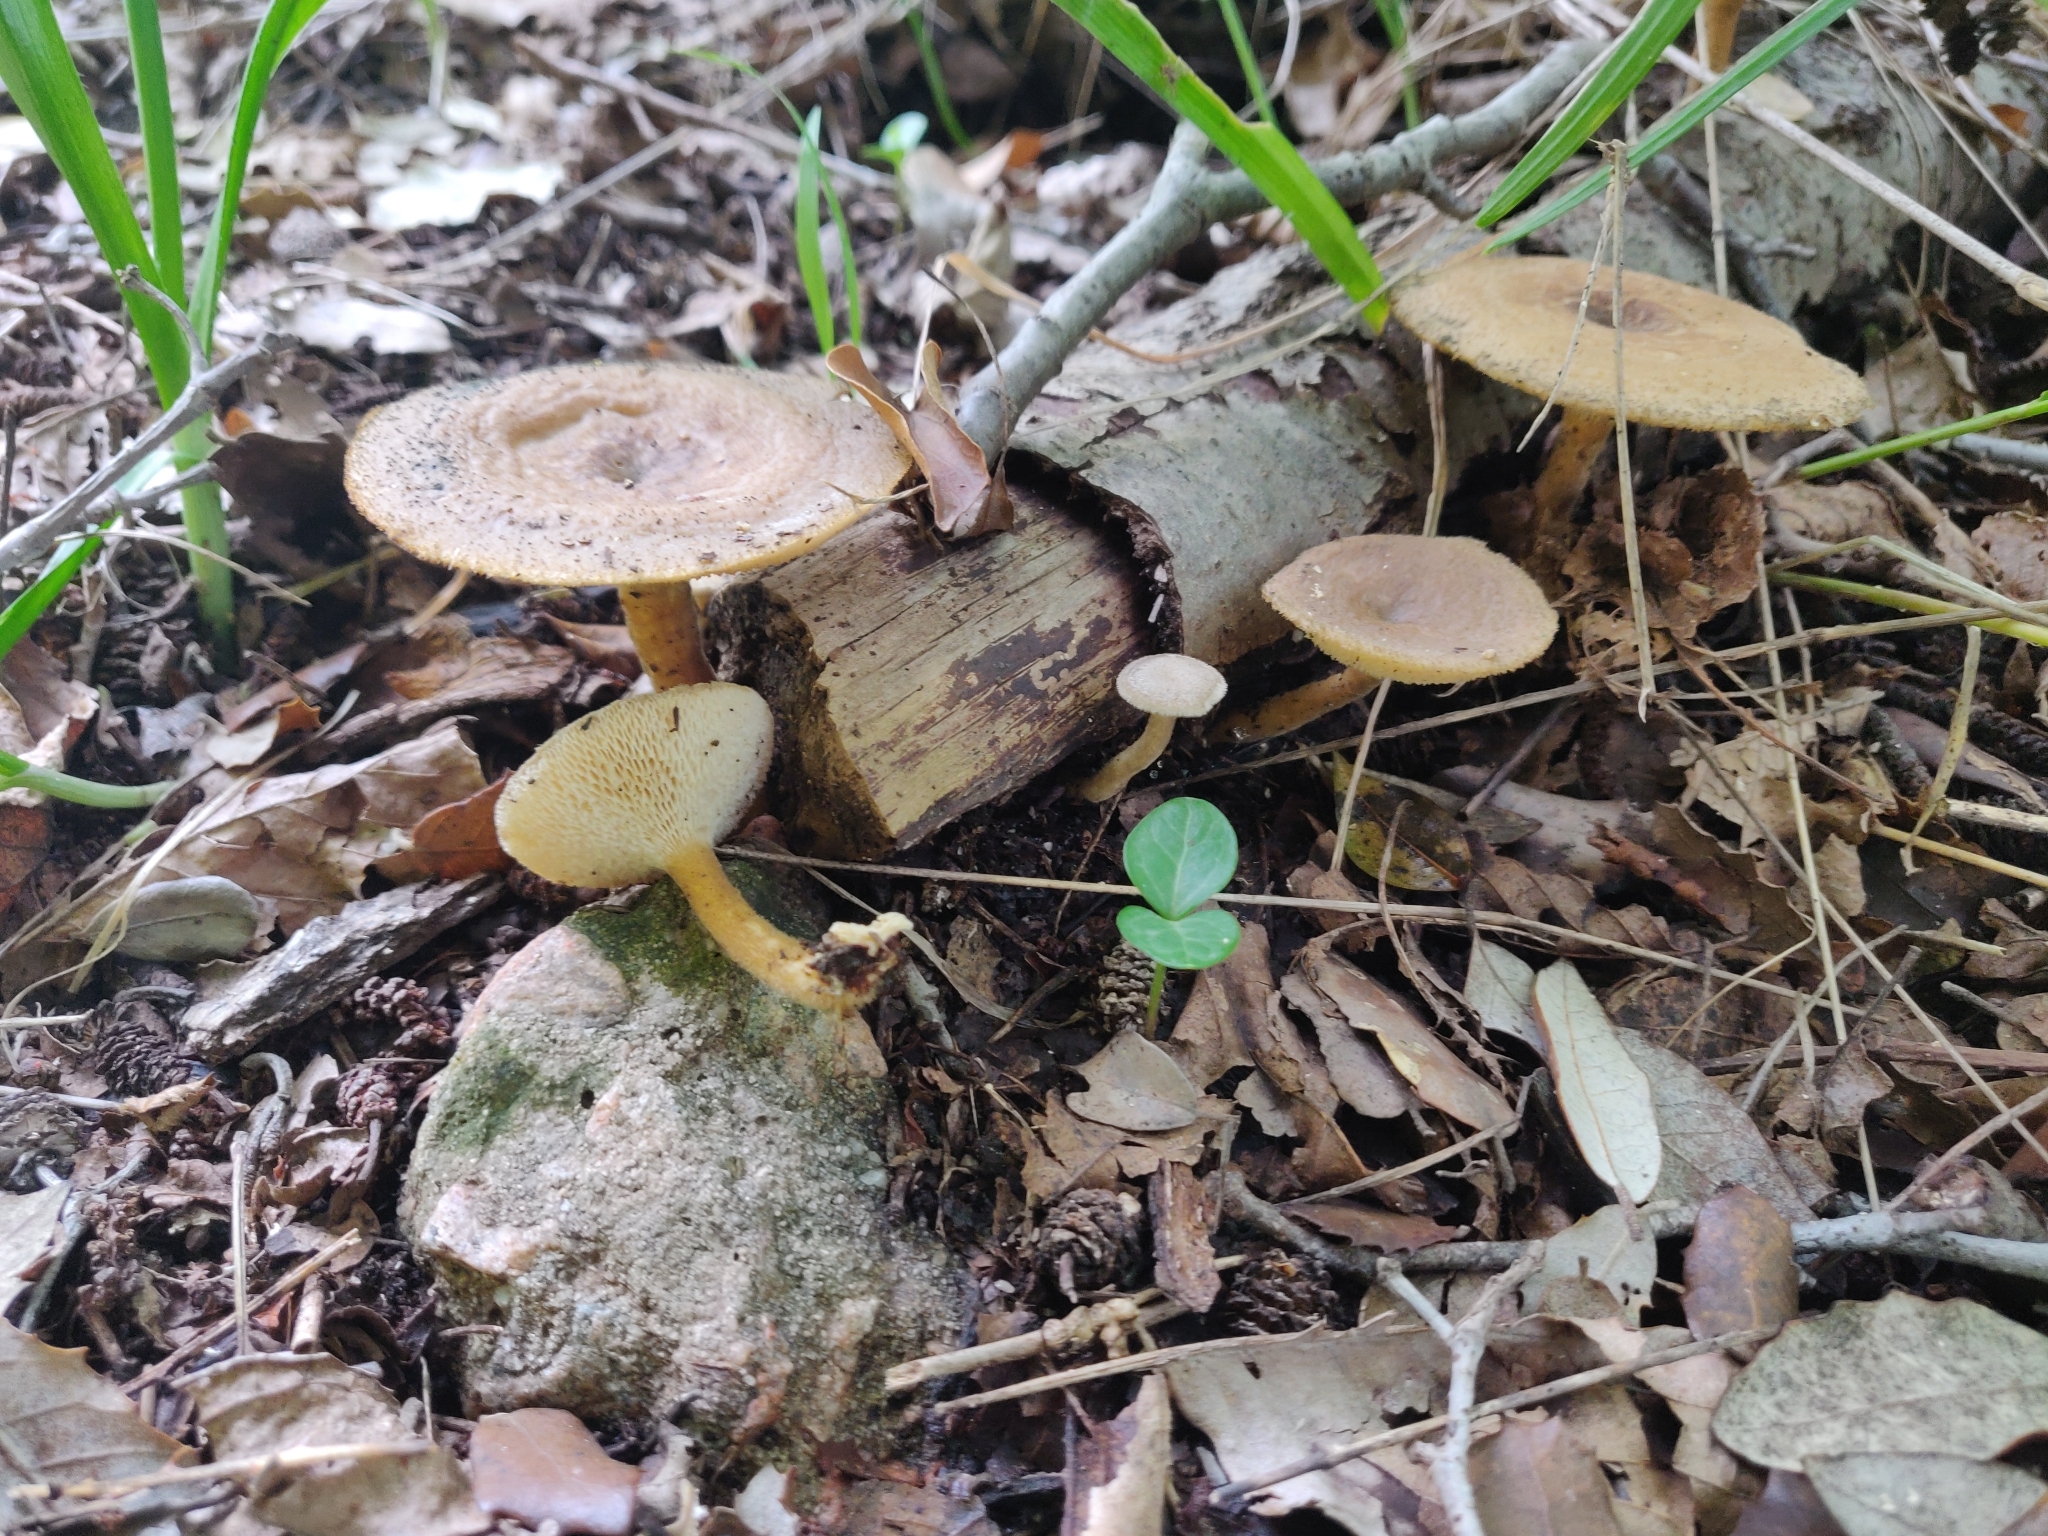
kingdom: Fungi
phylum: Basidiomycota
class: Agaricomycetes
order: Polyporales
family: Polyporaceae
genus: Lentinus
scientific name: Lentinus arcularius
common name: Spring polypore
